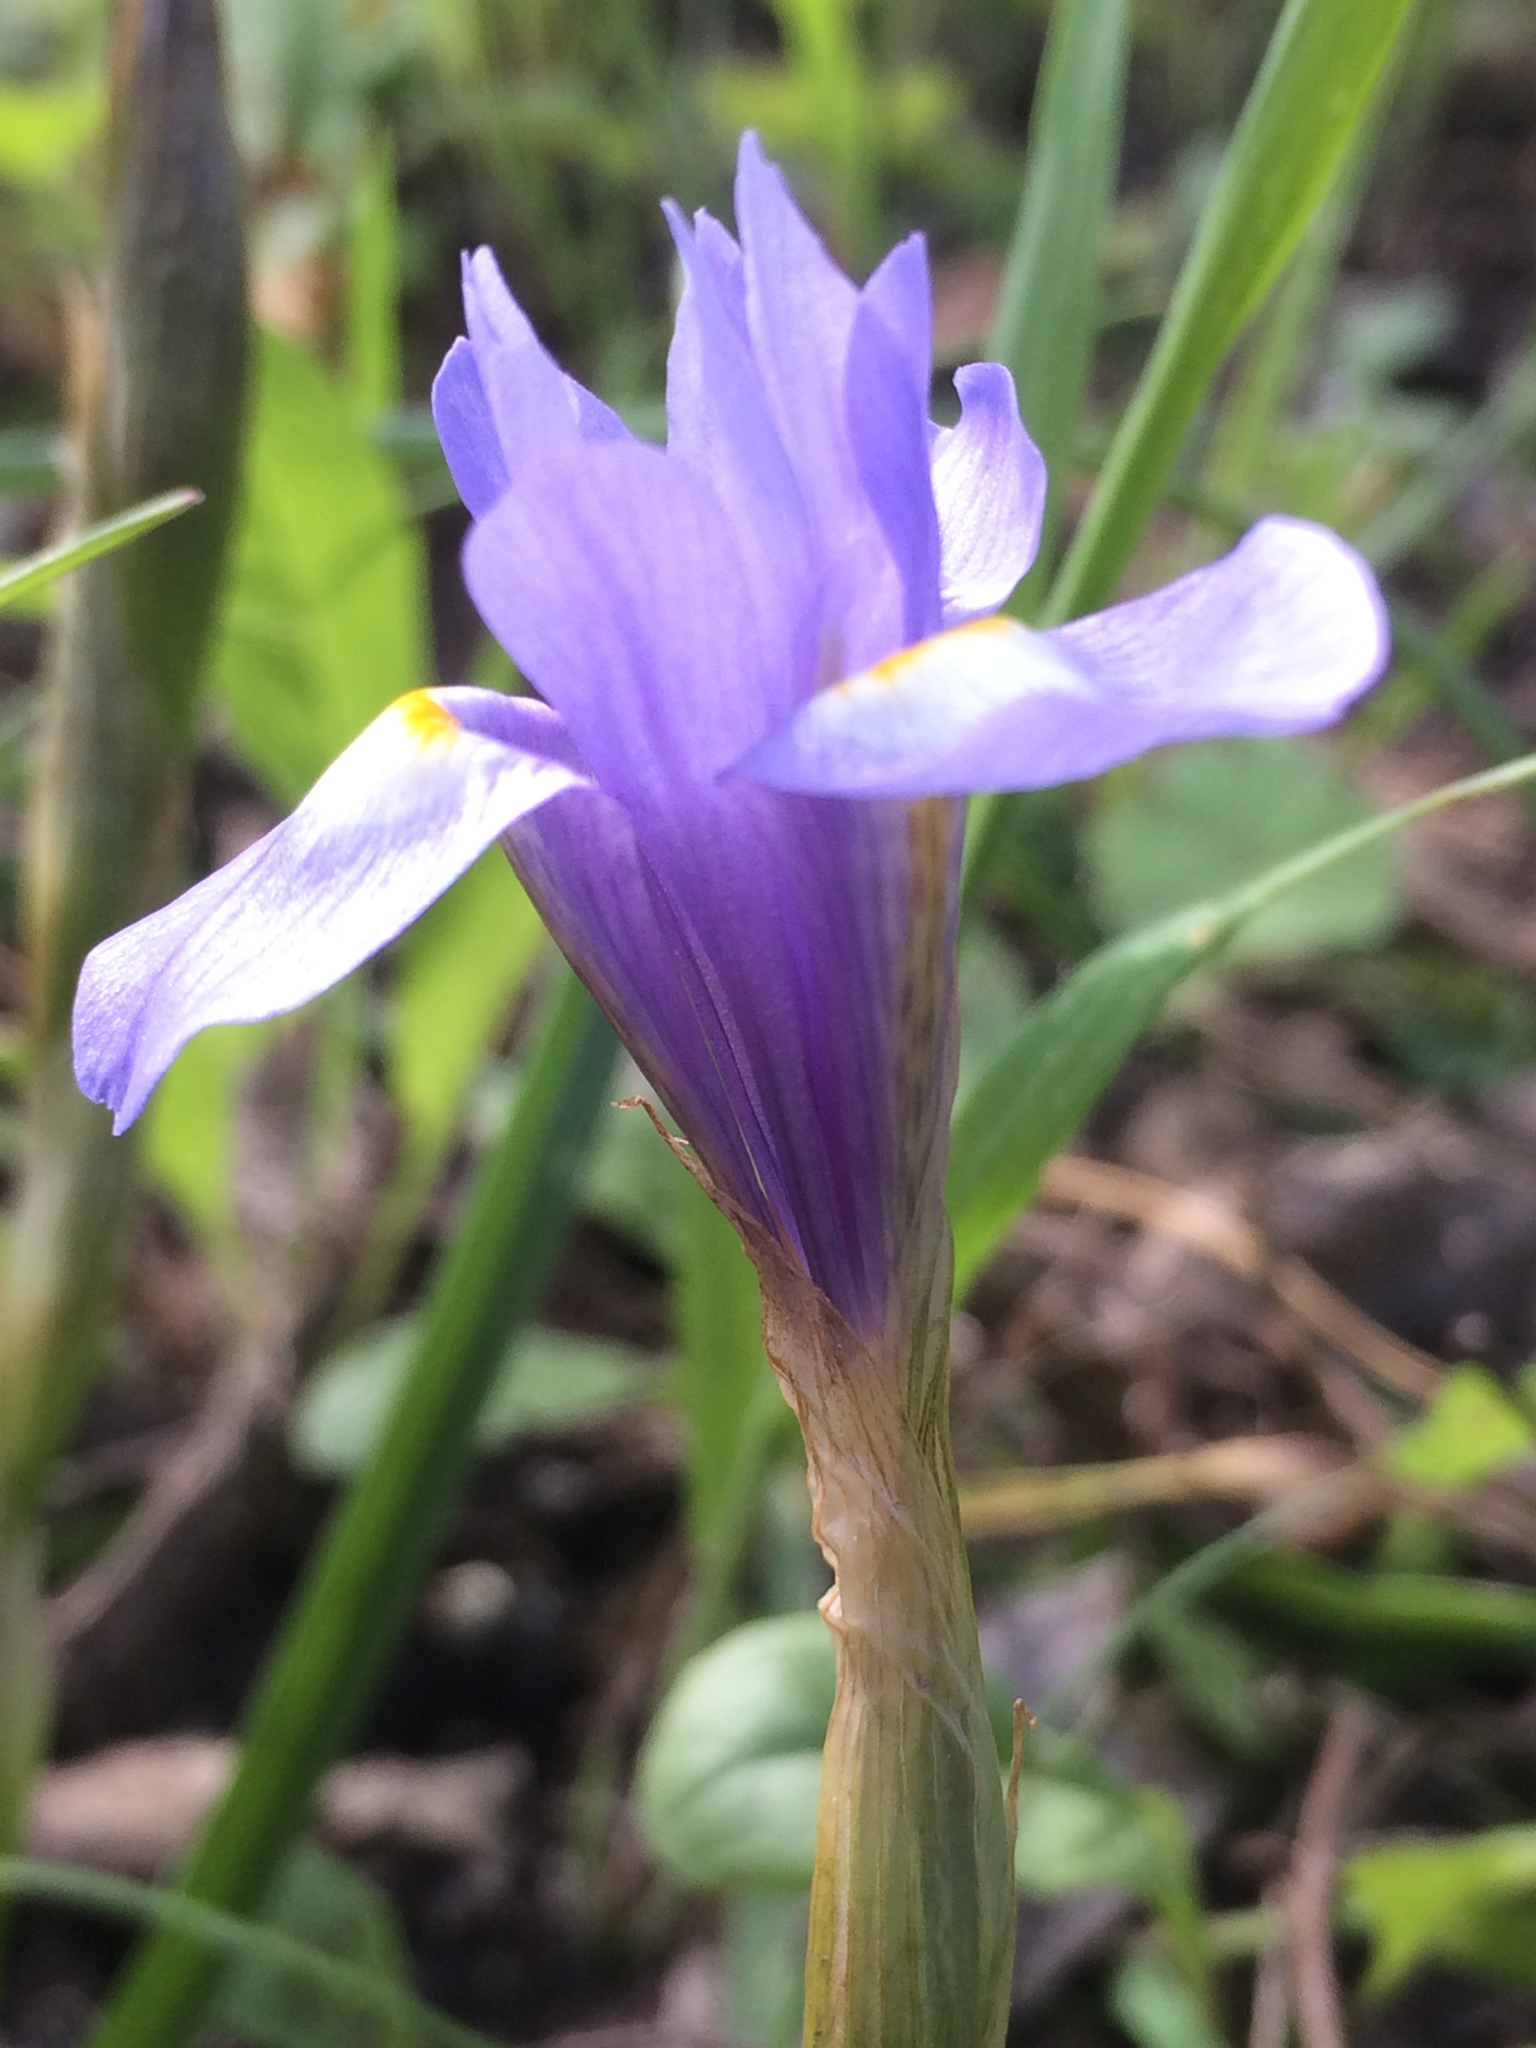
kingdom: Plantae
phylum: Tracheophyta
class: Liliopsida
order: Asparagales
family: Iridaceae
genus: Moraea
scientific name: Moraea sisyrinchium
